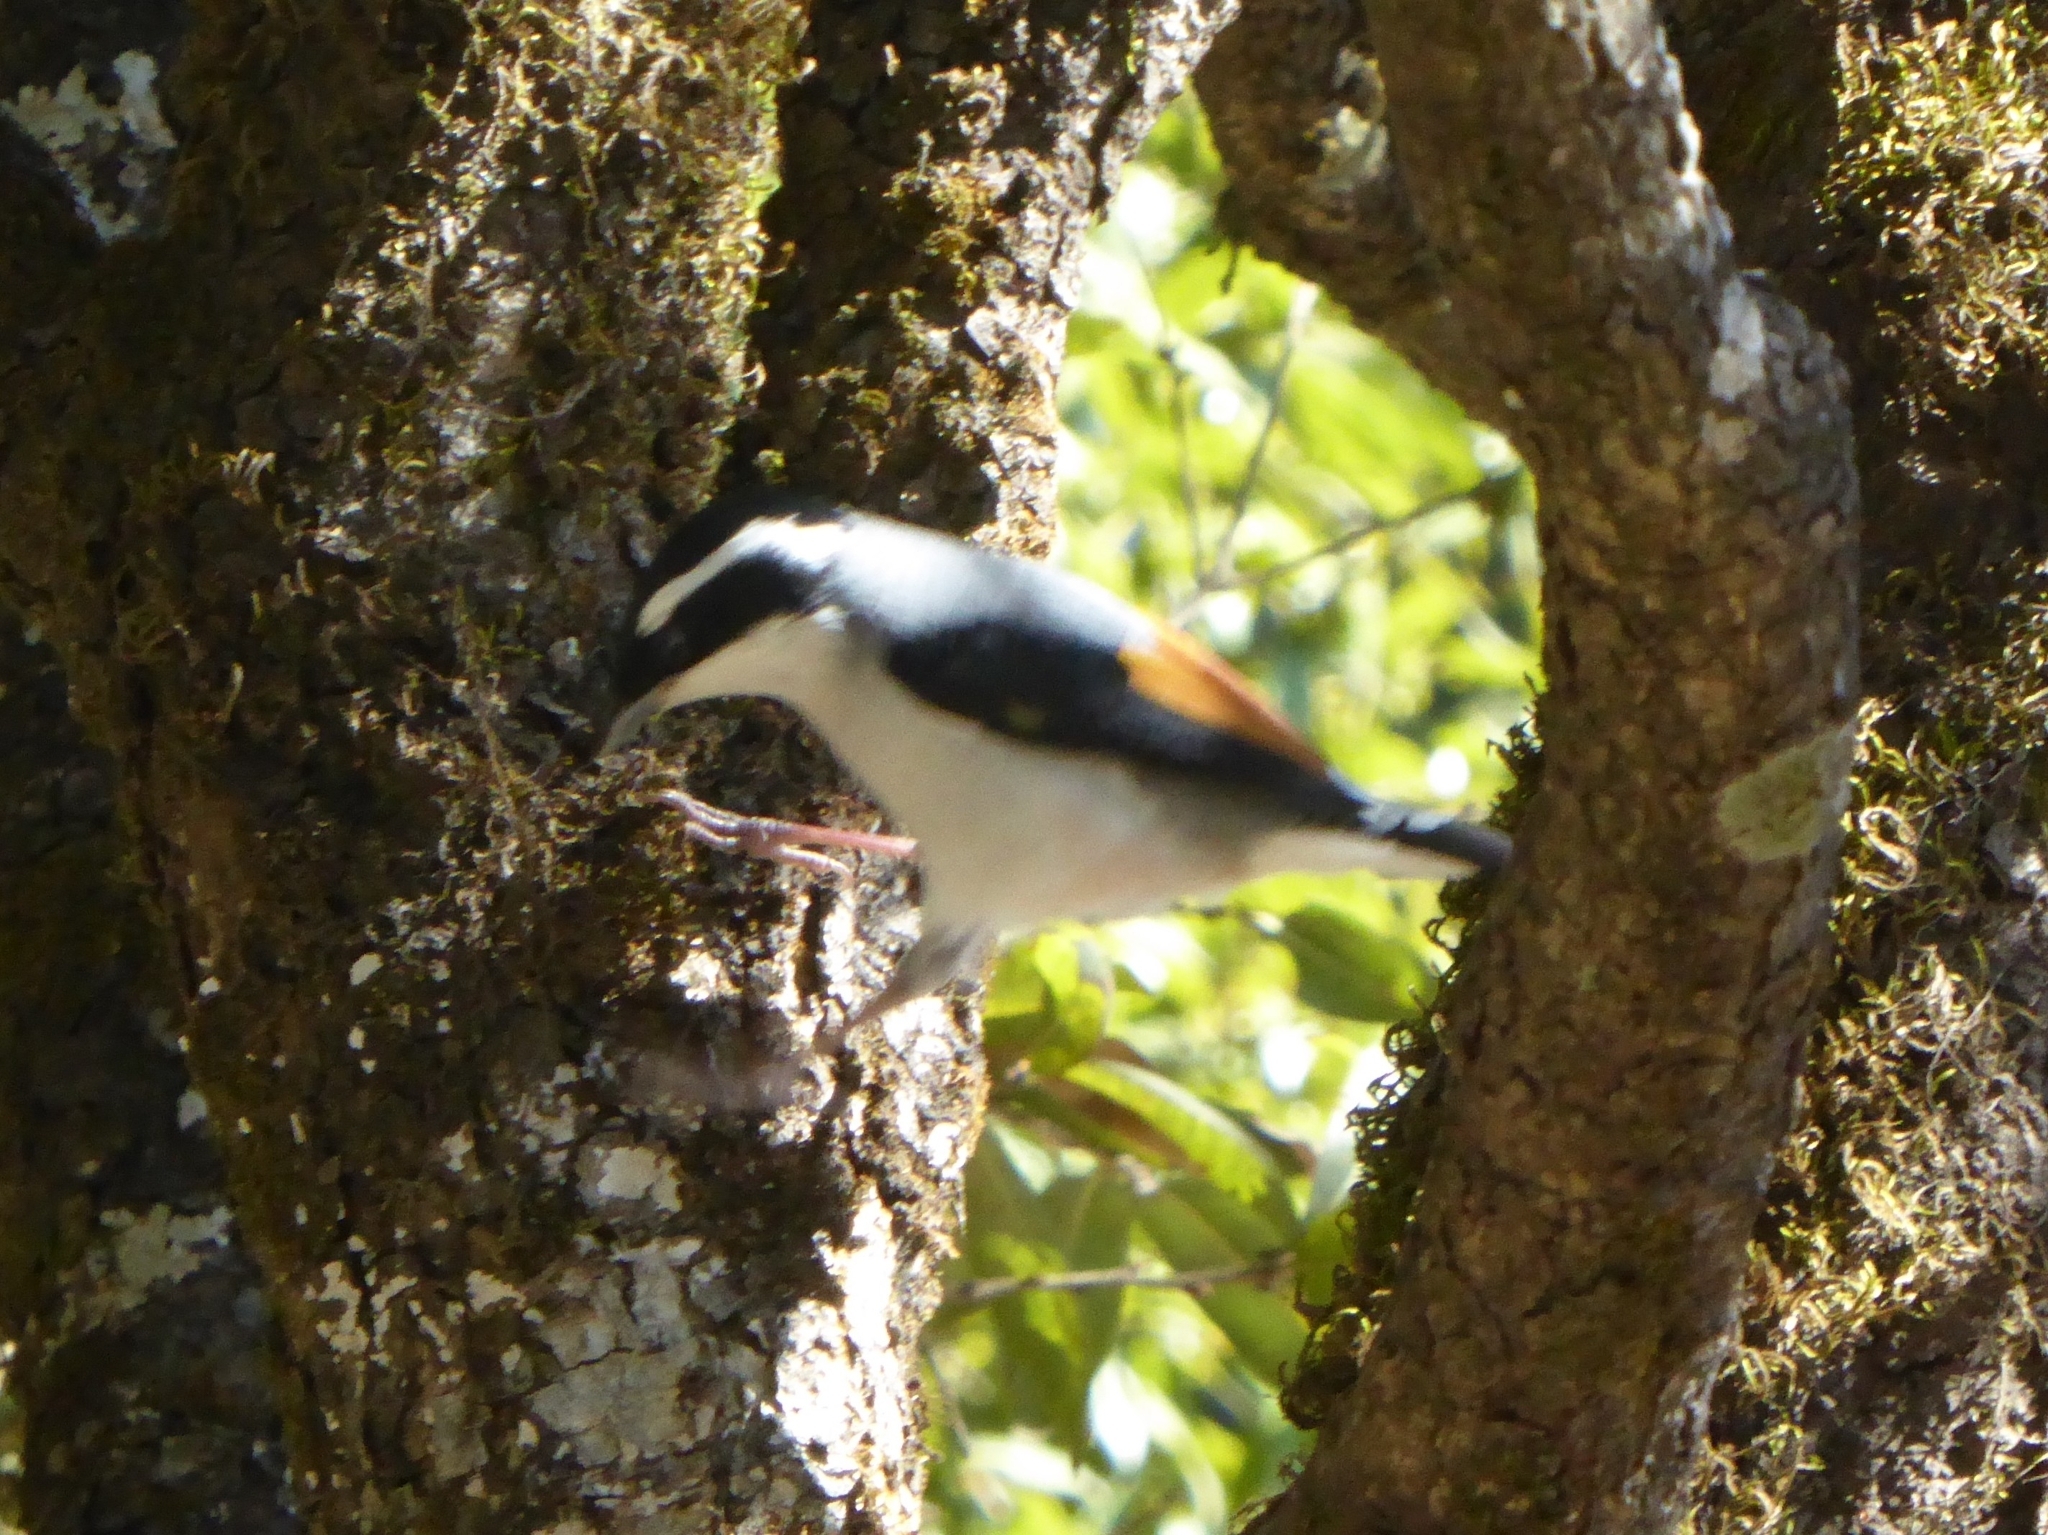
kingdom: Animalia
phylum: Chordata
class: Aves
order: Passeriformes
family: Vireonidae
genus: Pteruthius
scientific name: Pteruthius aeralatus
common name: Blyth's shrike-babbler
